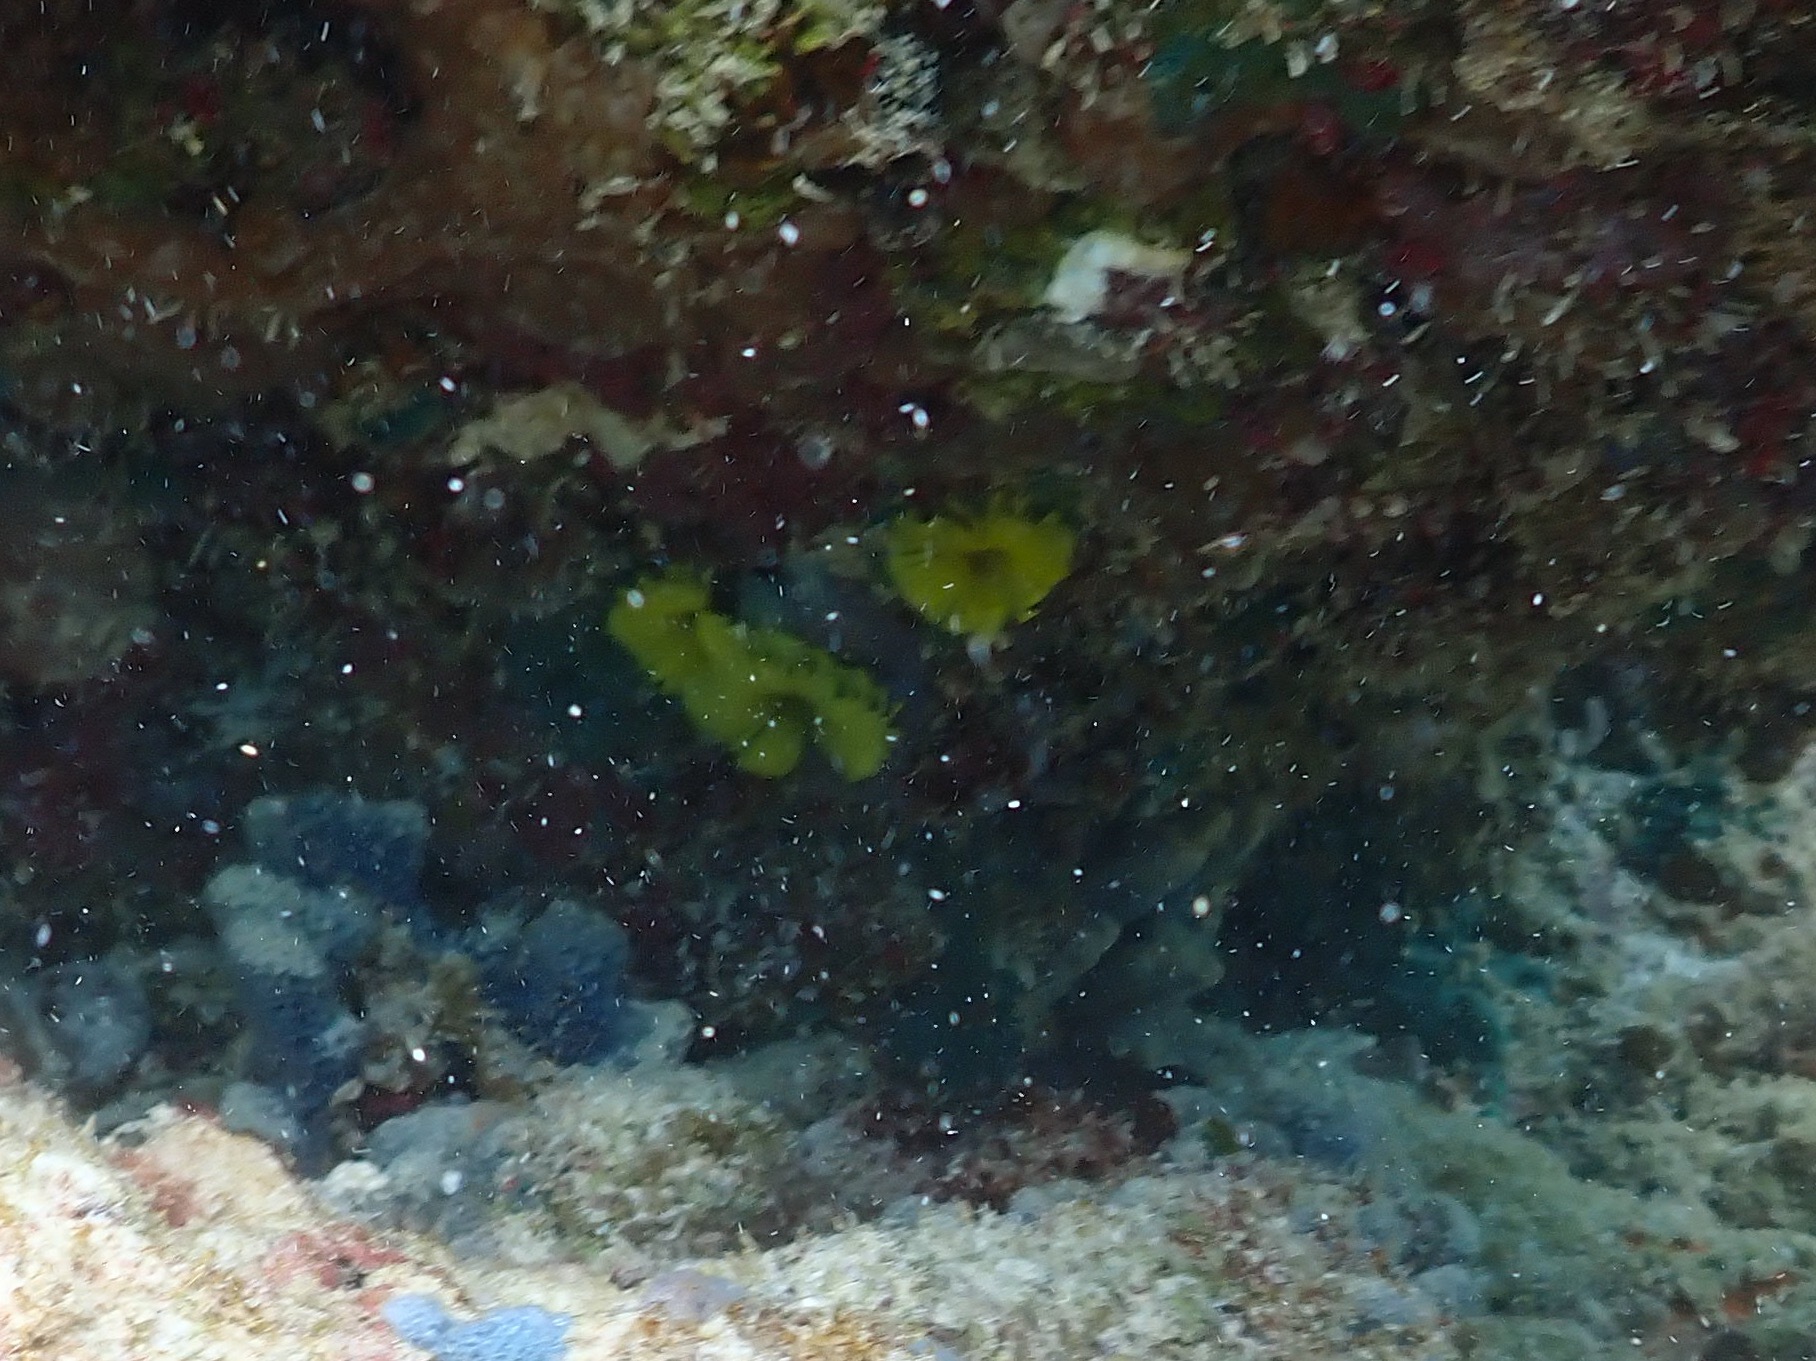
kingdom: Animalia
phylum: Annelida
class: Polychaeta
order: Sabellida
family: Sabellidae
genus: Notaulax
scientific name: Notaulax occidentalis
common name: Yellow fanworm
